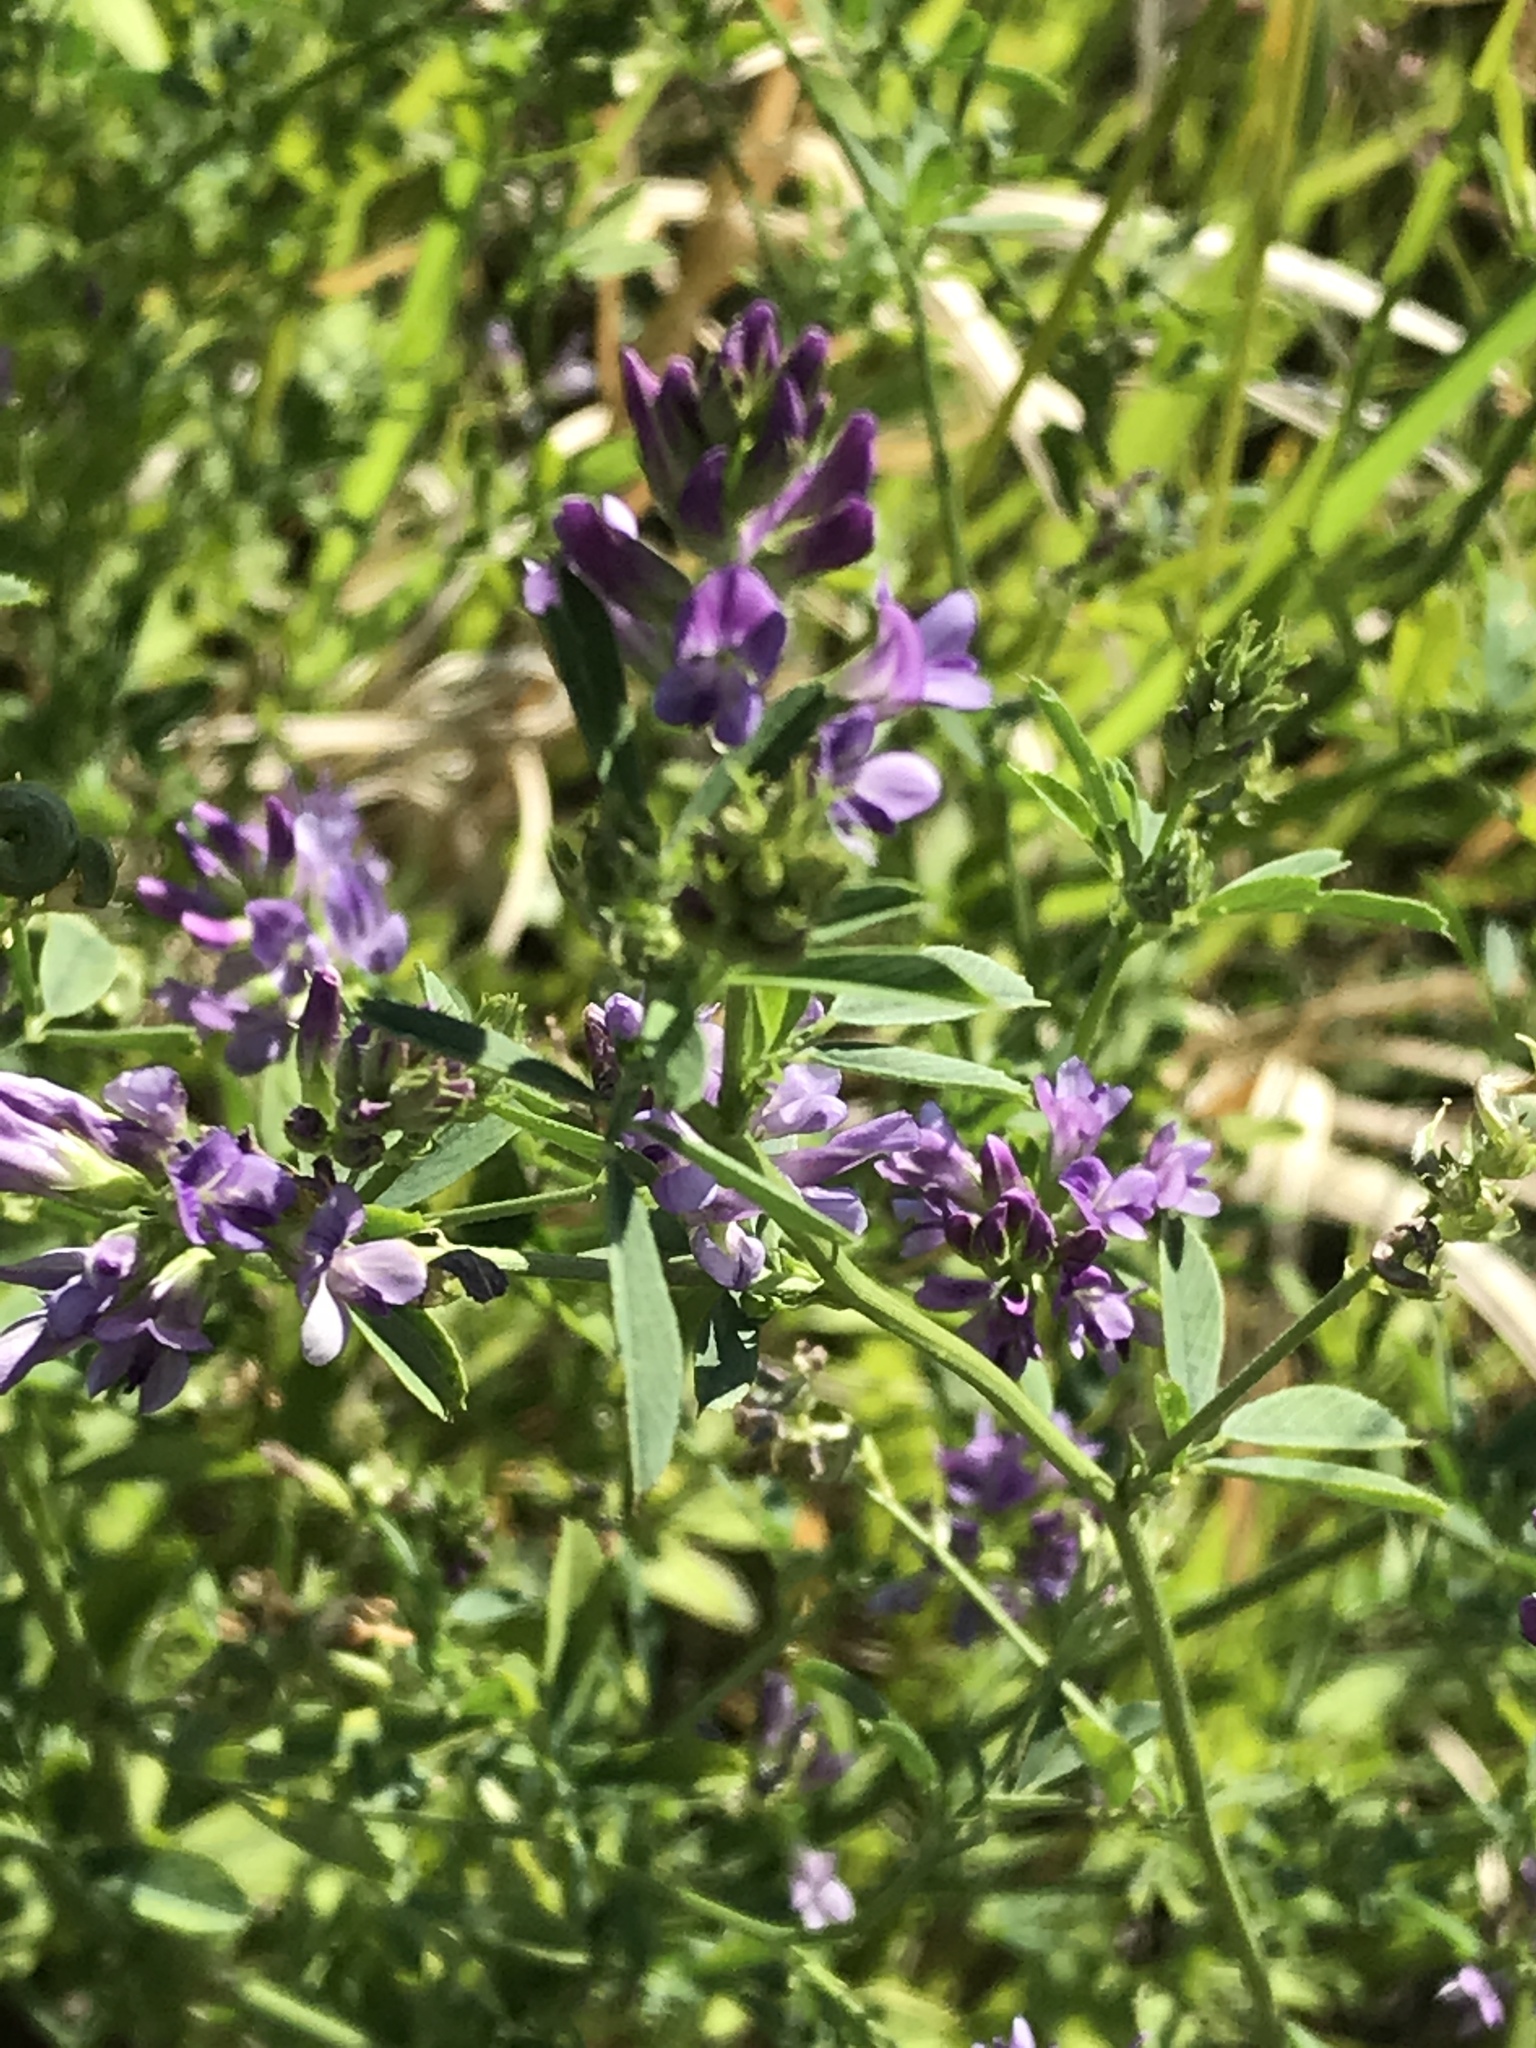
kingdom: Plantae
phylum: Tracheophyta
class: Magnoliopsida
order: Fabales
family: Fabaceae
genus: Medicago
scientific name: Medicago sativa
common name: Alfalfa
